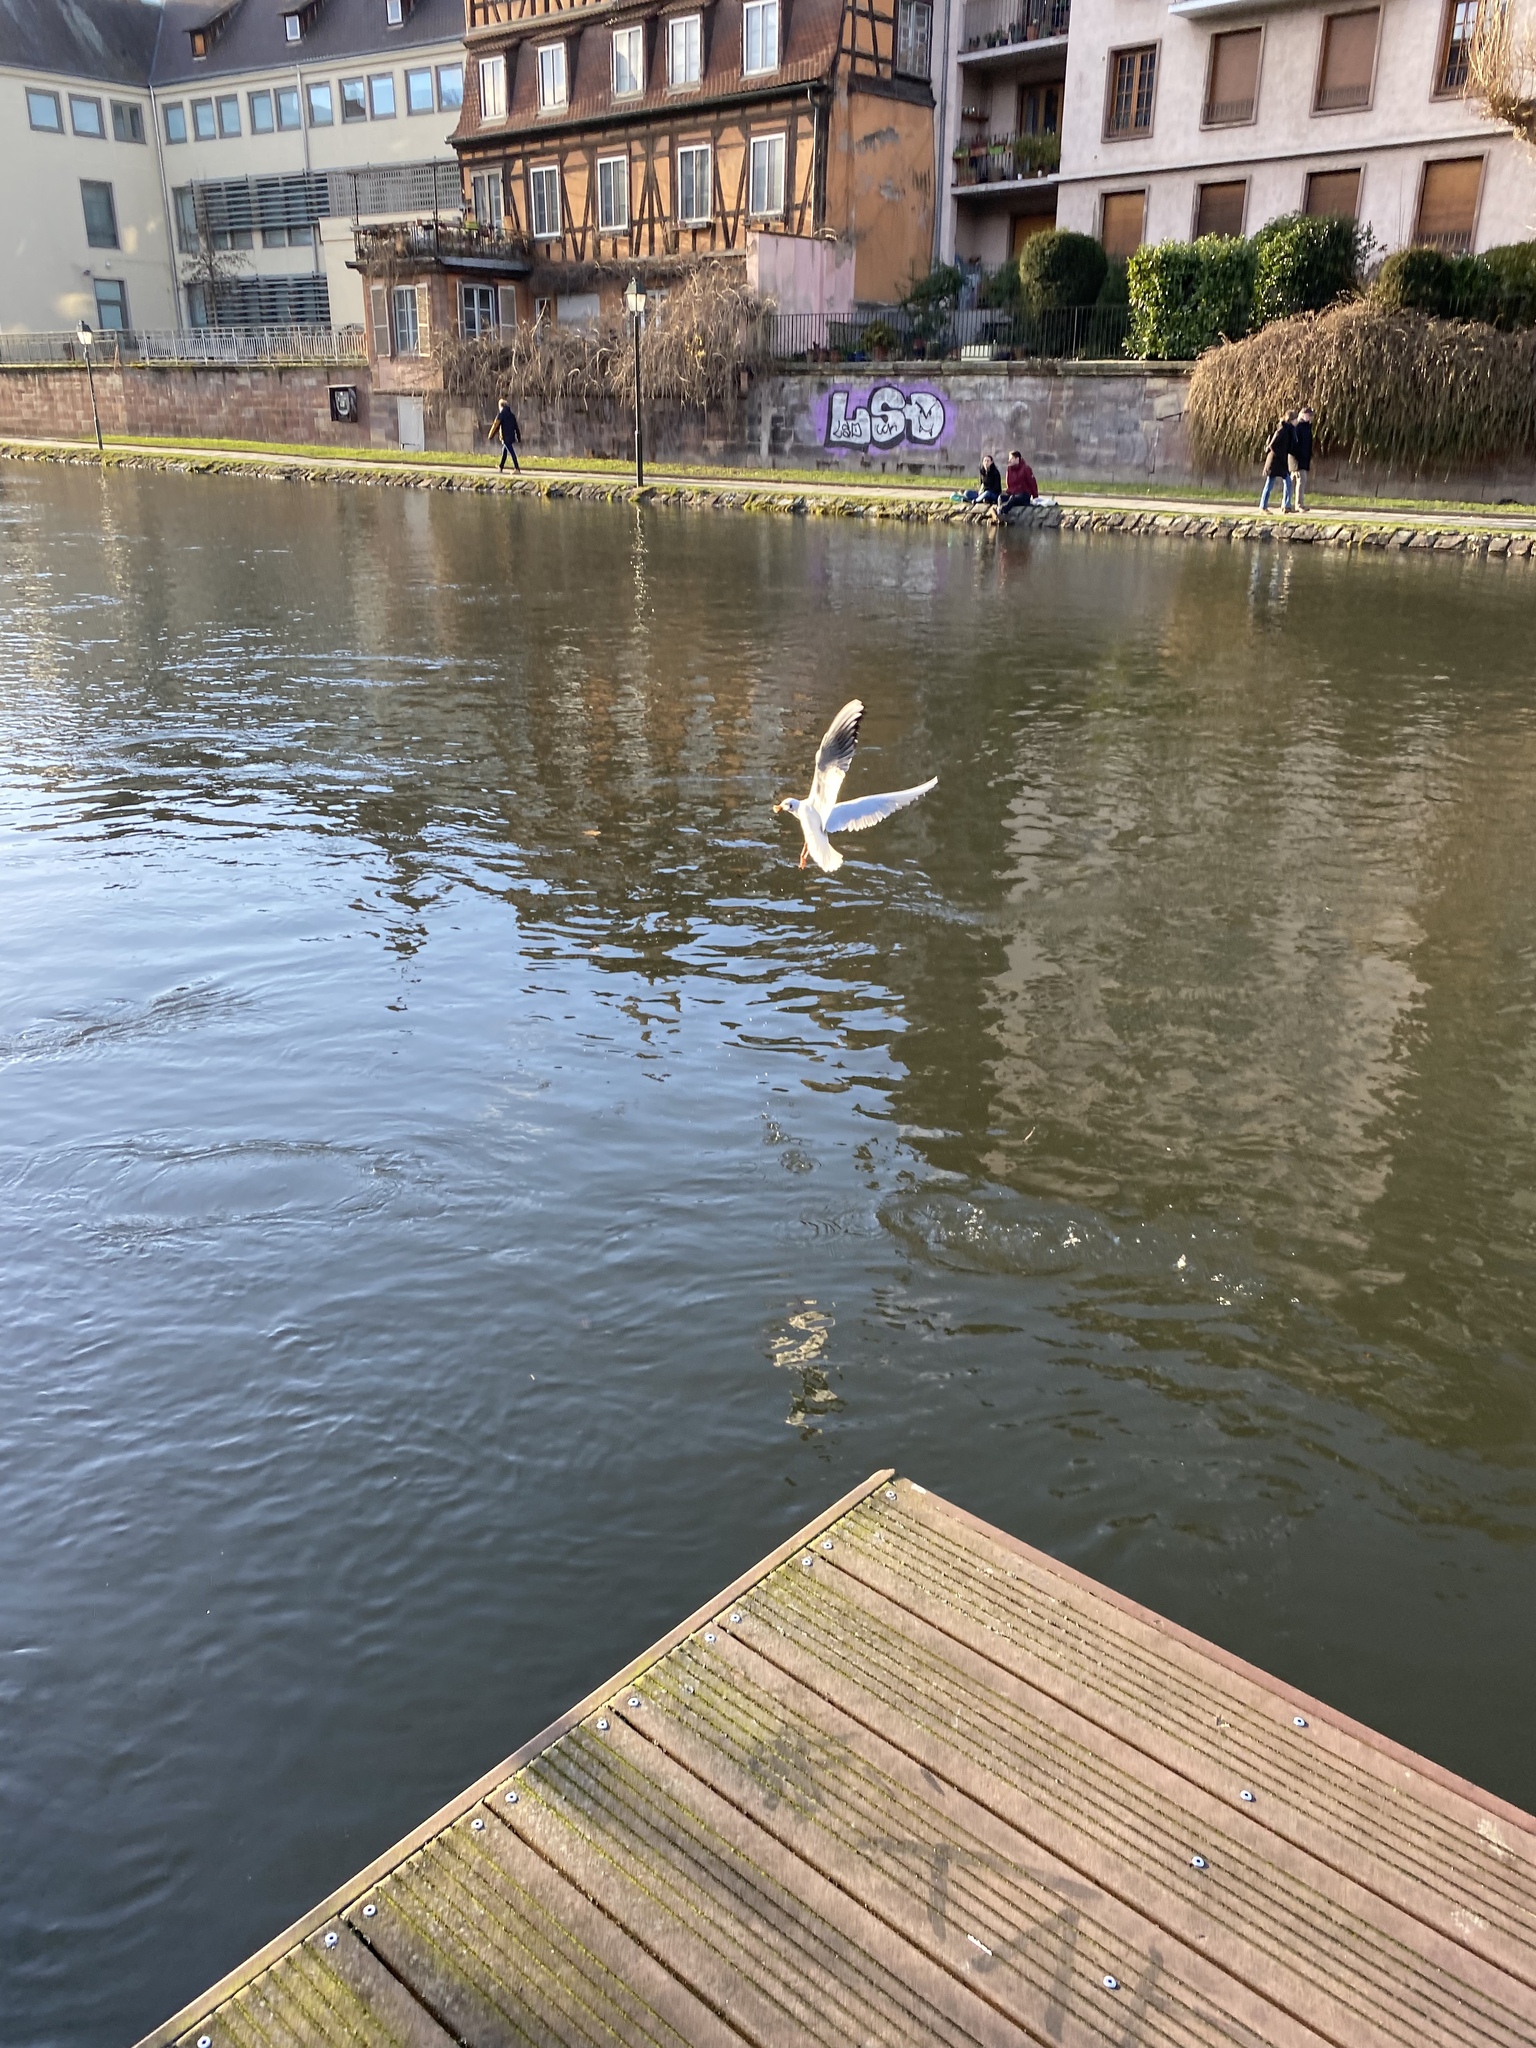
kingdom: Animalia
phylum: Chordata
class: Aves
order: Charadriiformes
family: Laridae
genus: Chroicocephalus
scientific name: Chroicocephalus ridibundus
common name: Black-headed gull
